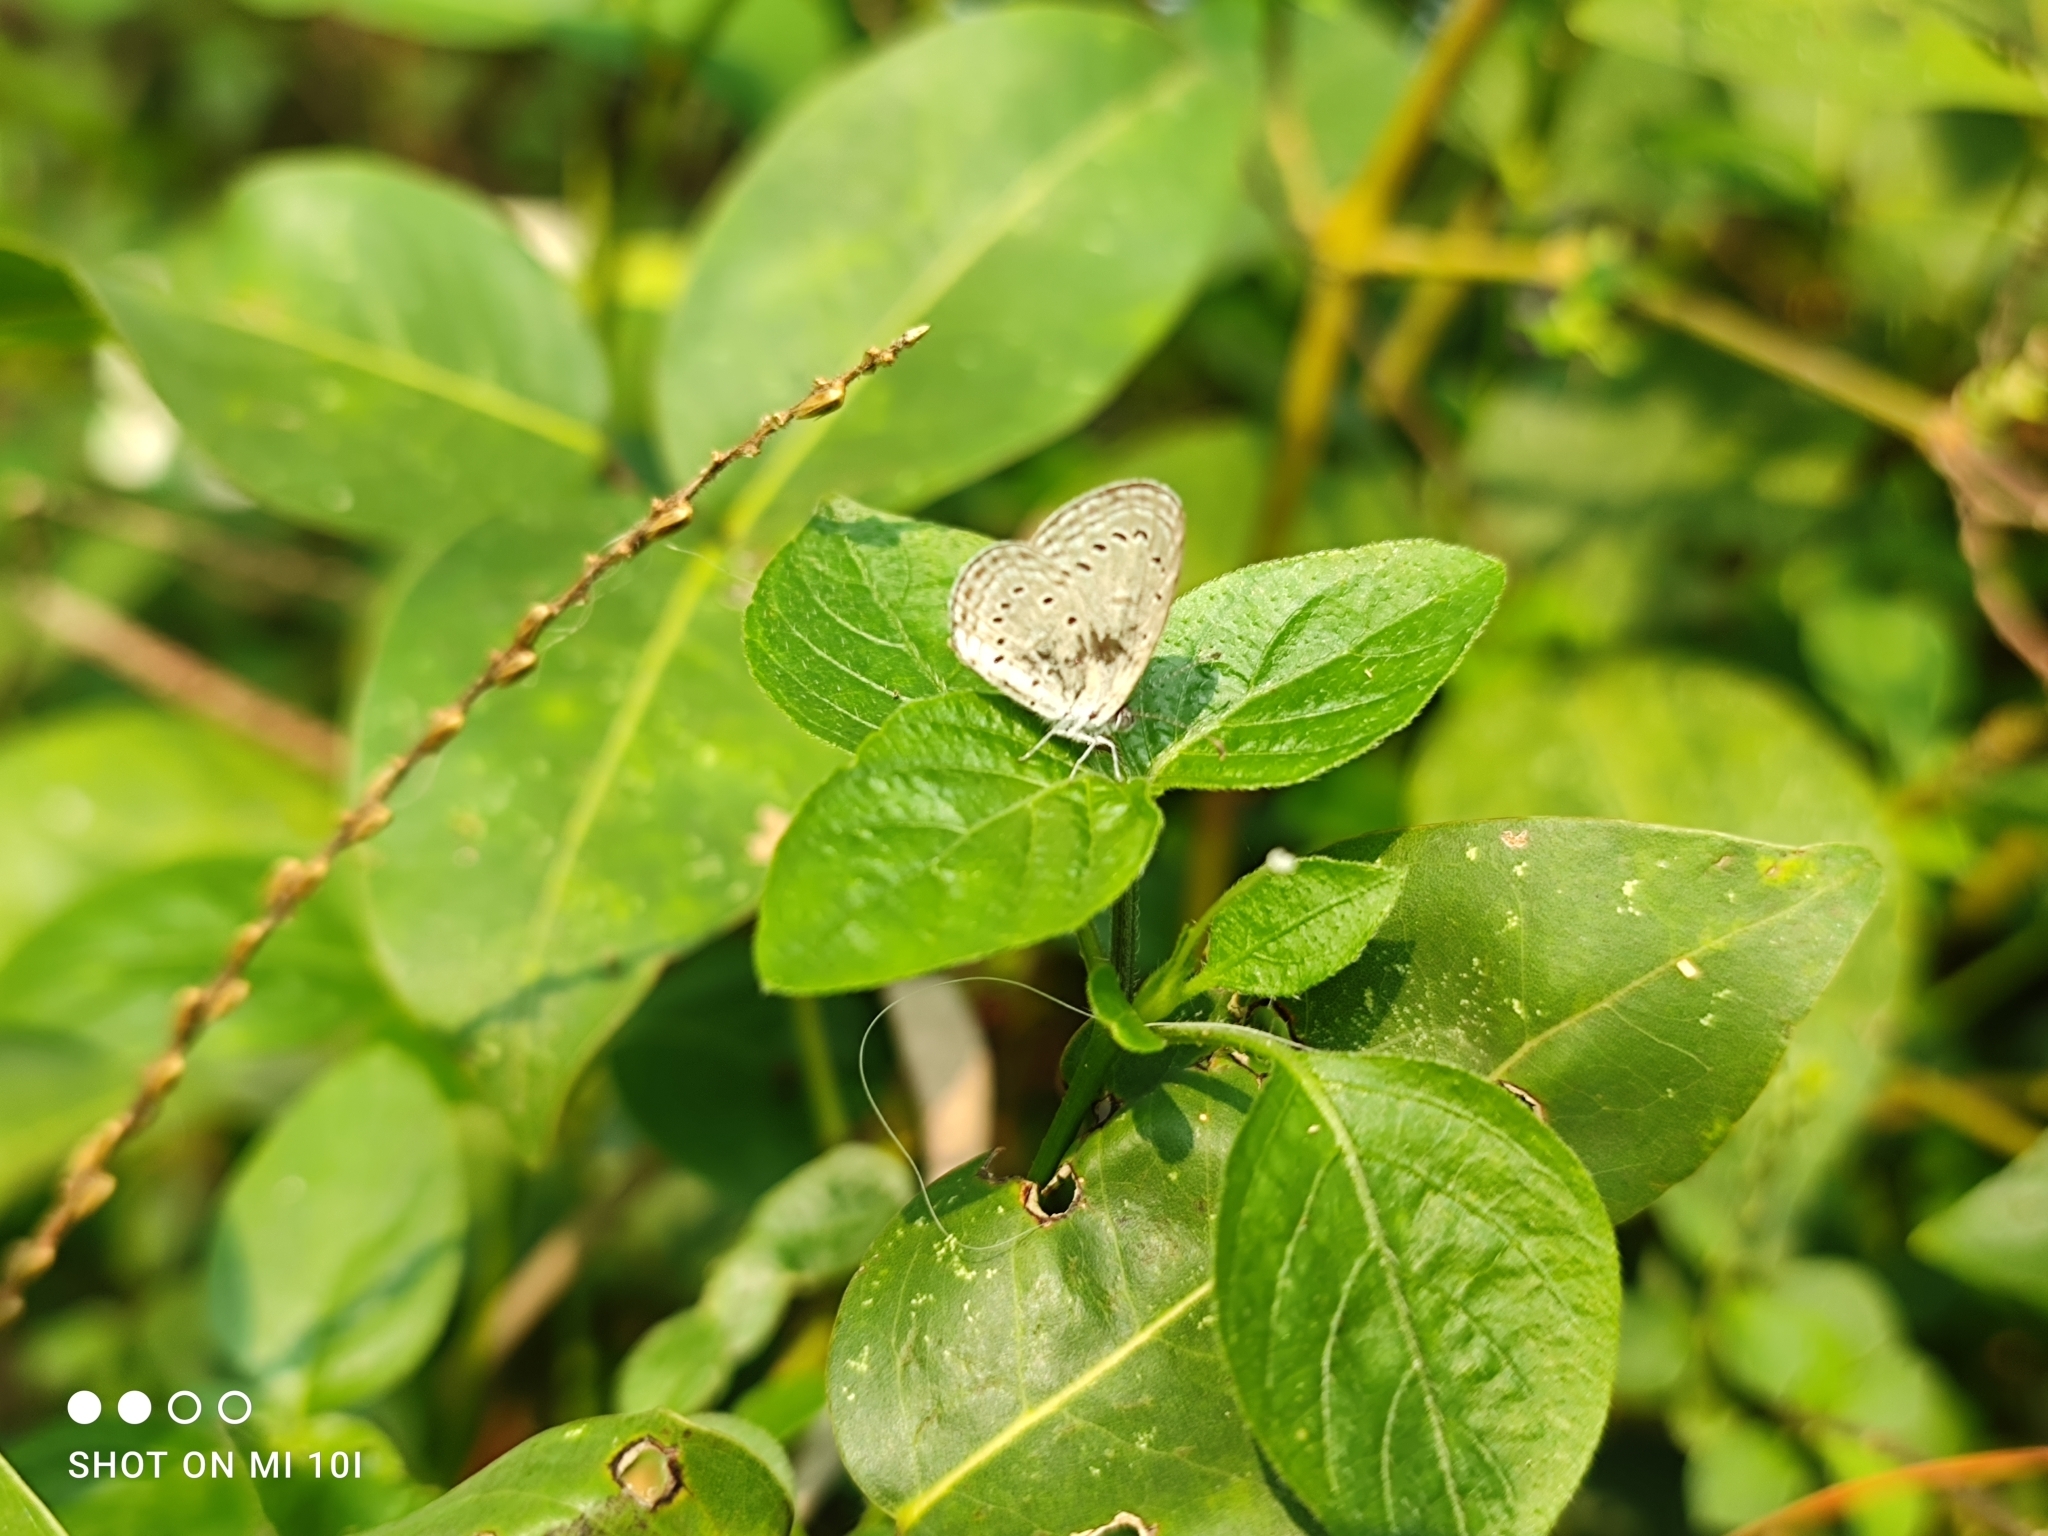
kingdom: Animalia
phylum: Arthropoda
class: Insecta
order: Lepidoptera
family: Lycaenidae
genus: Zizula
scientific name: Zizula hylax
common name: Gaika blue
